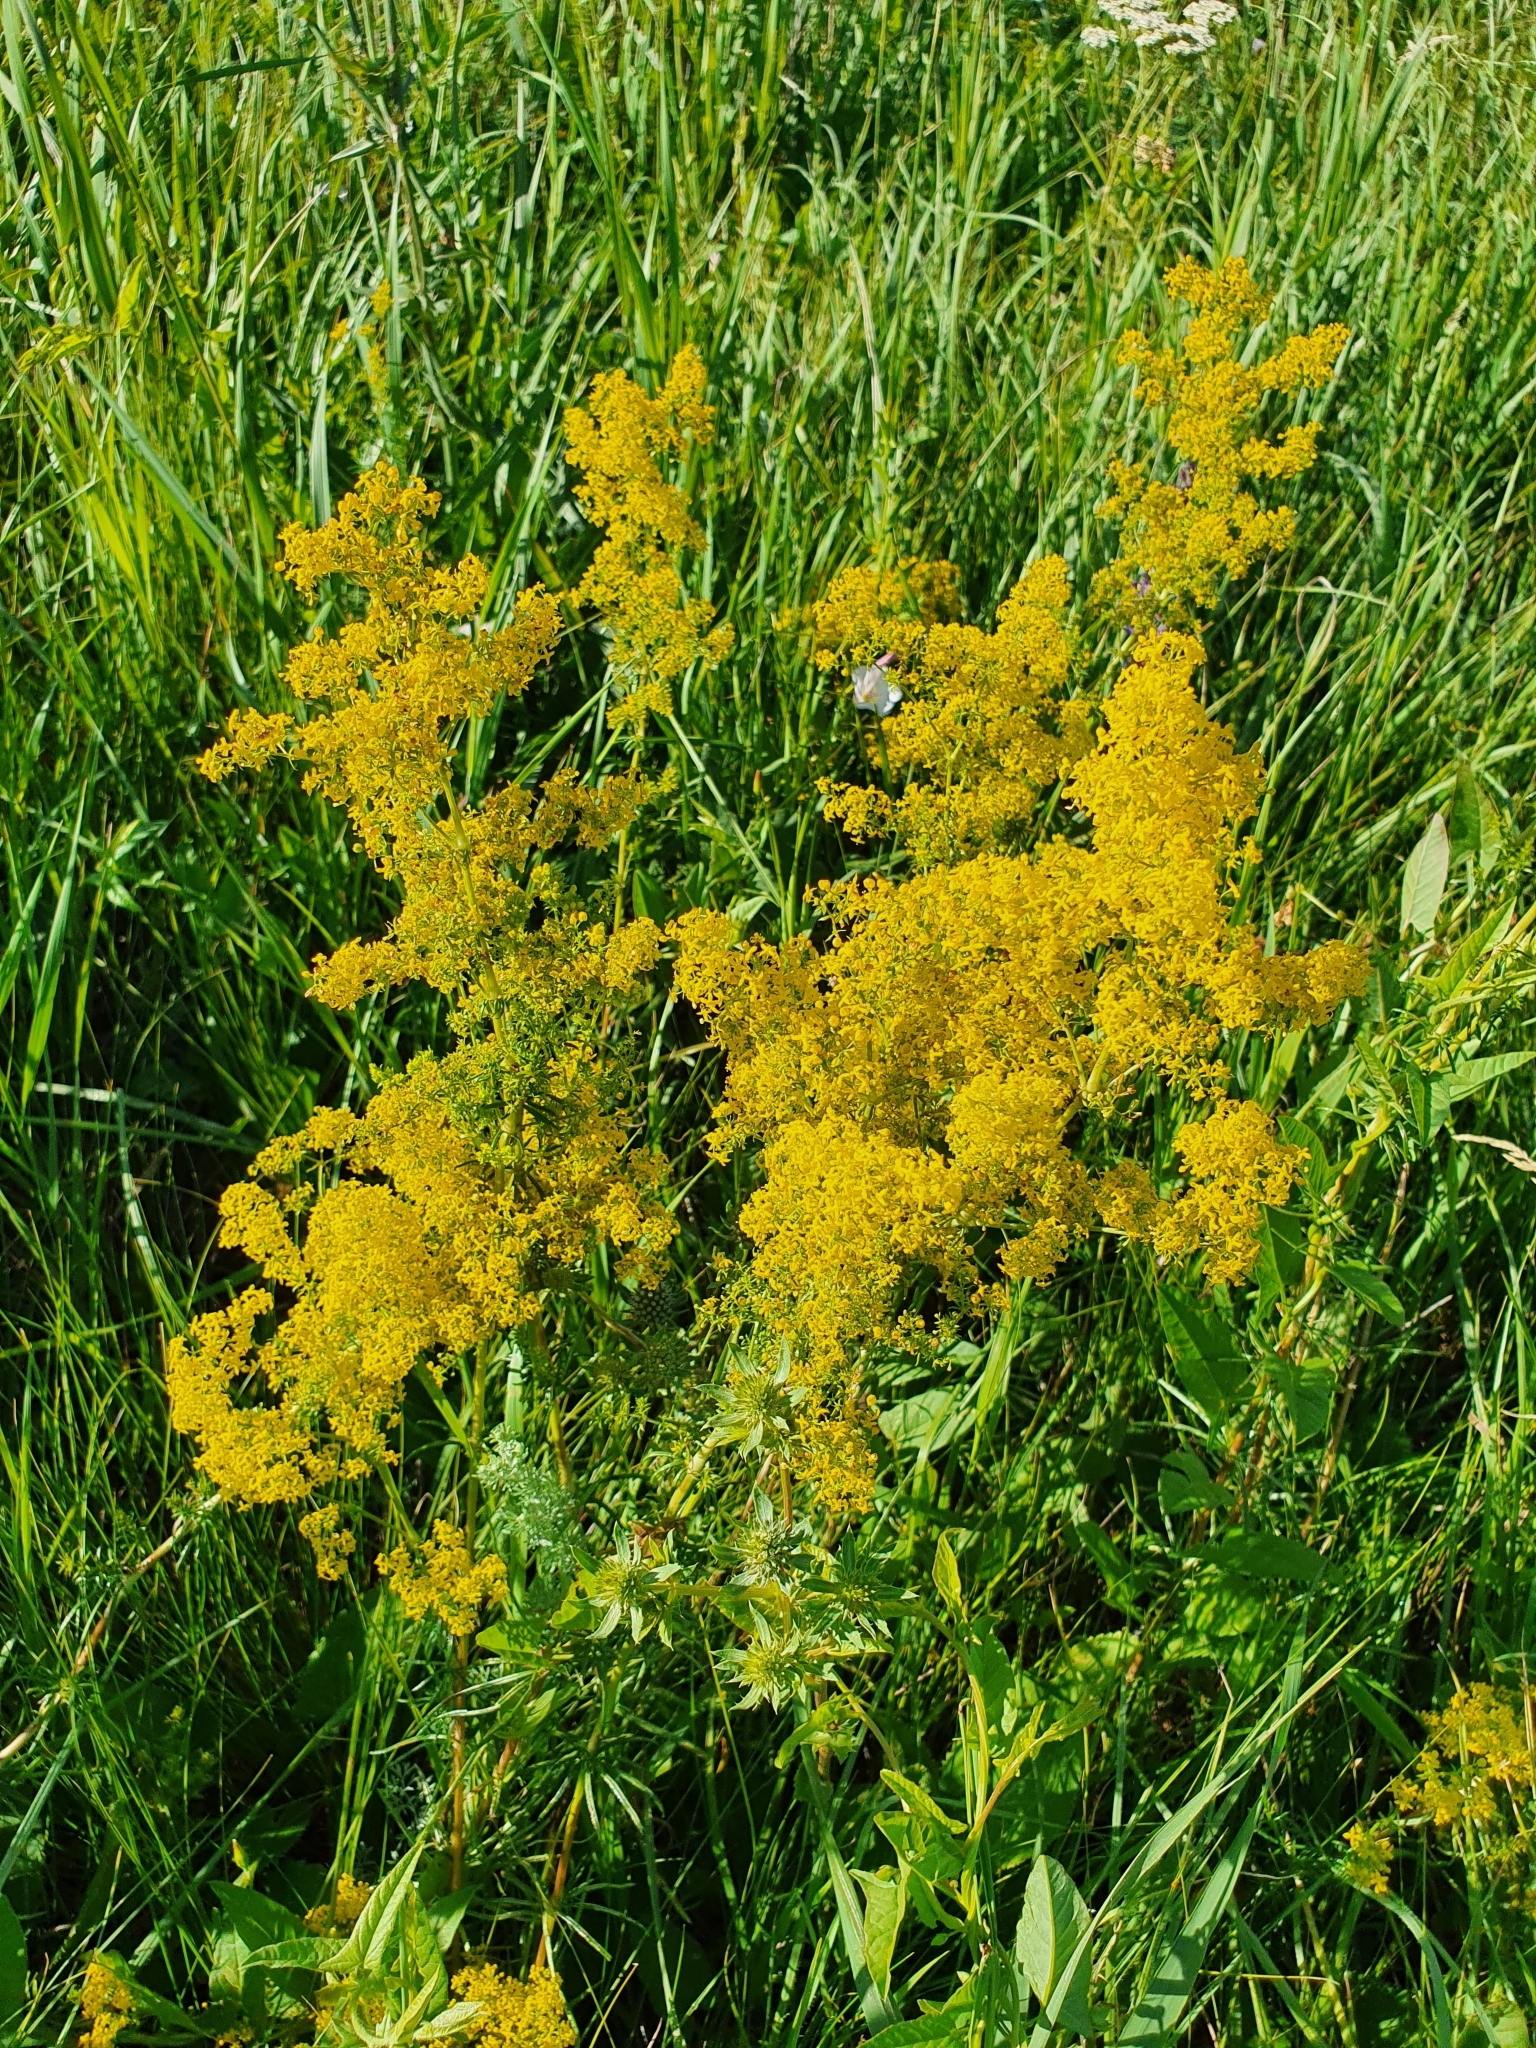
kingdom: Plantae
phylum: Tracheophyta
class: Magnoliopsida
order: Gentianales
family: Rubiaceae
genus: Galium
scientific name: Galium verum
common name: Lady's bedstraw
